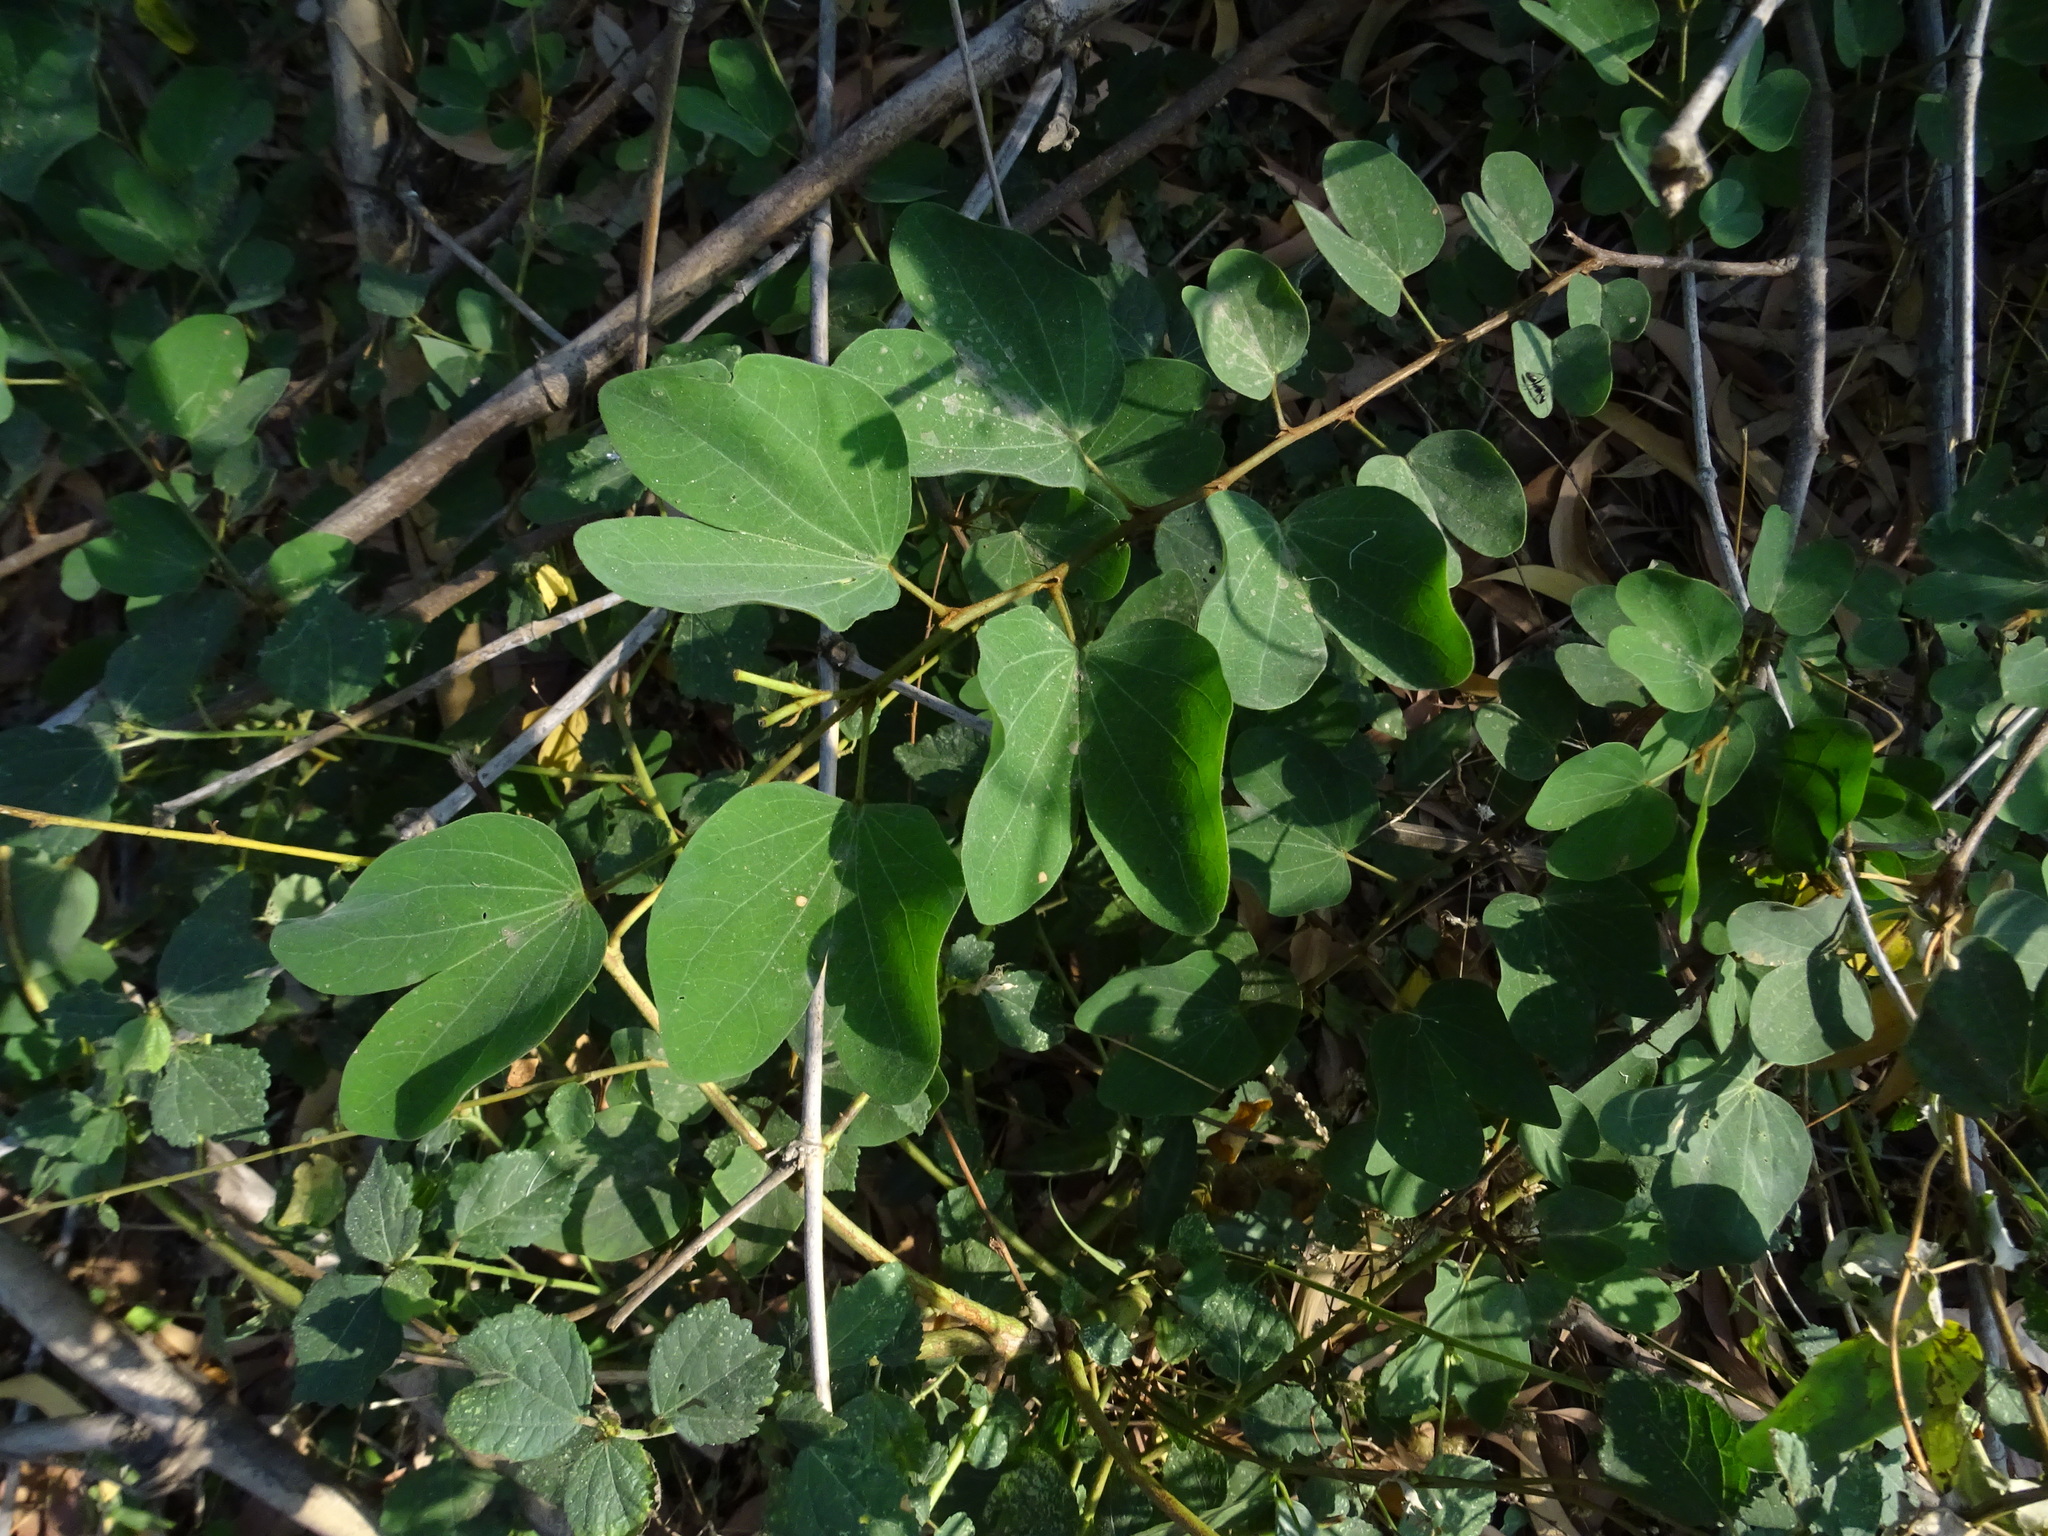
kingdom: Plantae
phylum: Tracheophyta
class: Magnoliopsida
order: Fabales
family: Fabaceae
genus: Bauhinia
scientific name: Bauhinia tomentosa
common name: Bell bauhinia
